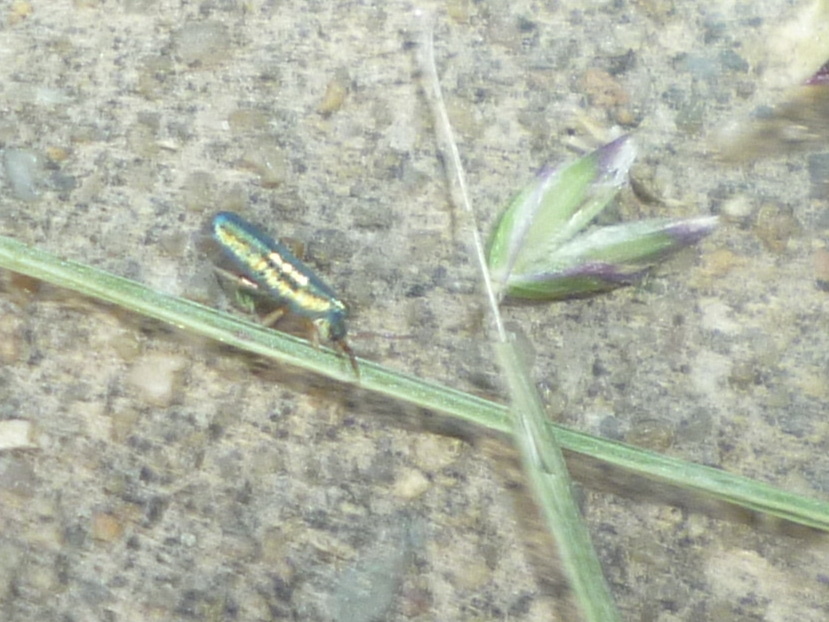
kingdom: Animalia
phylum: Arthropoda
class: Collembola
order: Entomobryomorpha
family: Entomobryidae
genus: Lepidocyrtus
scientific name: Lepidocyrtus paradoxus
